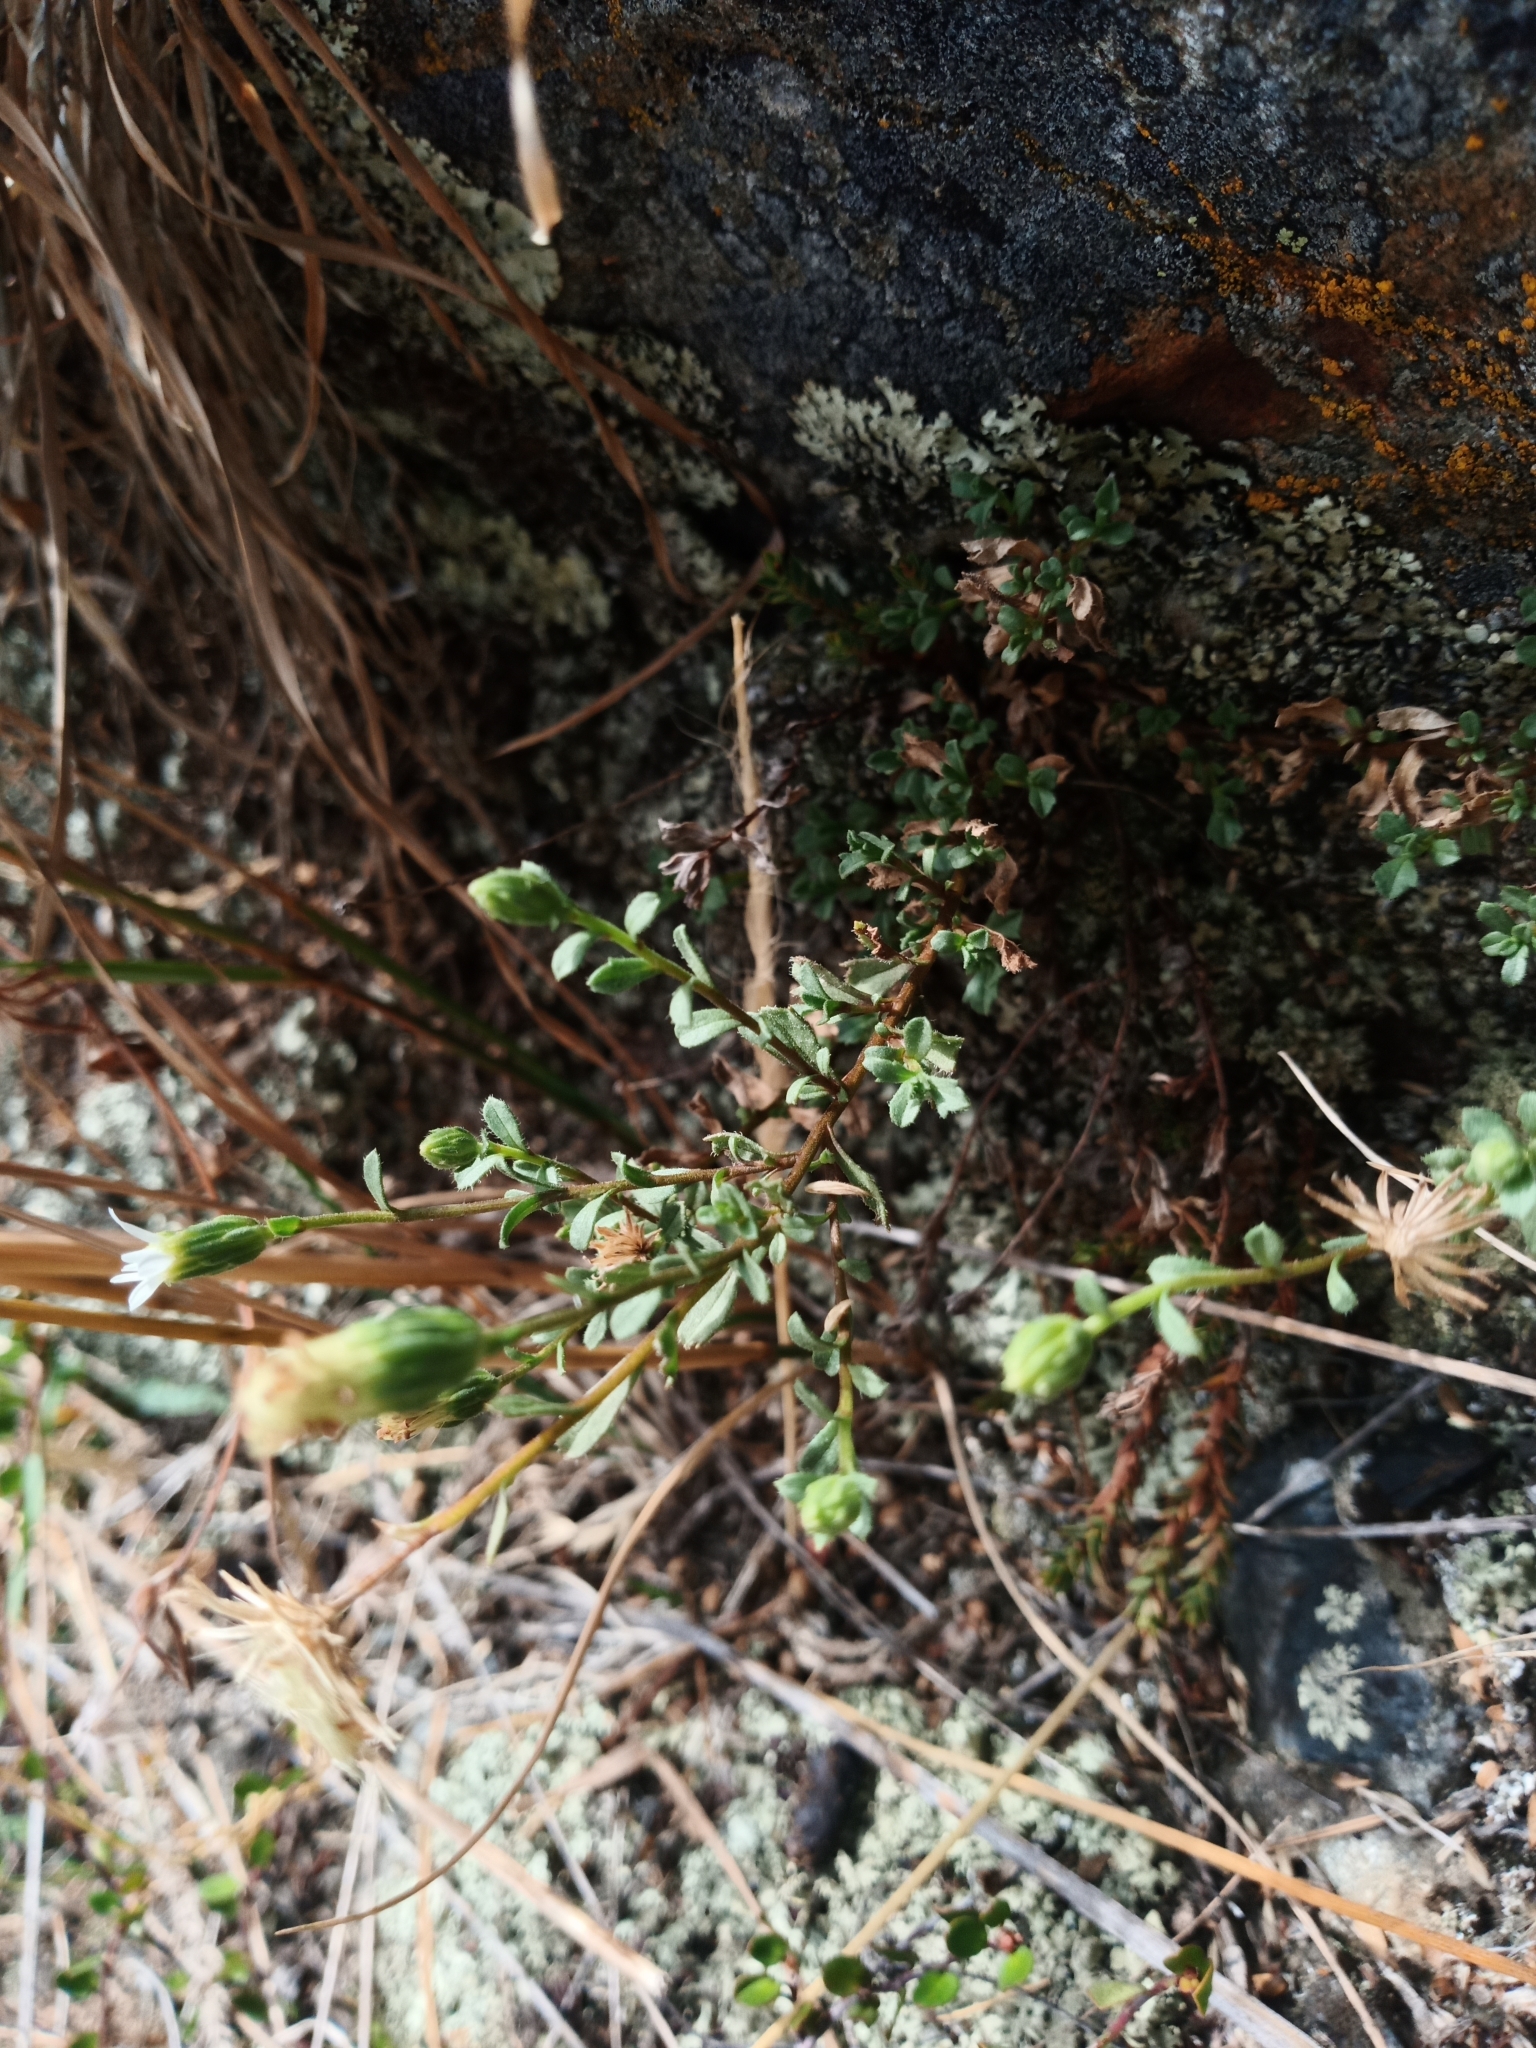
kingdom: Plantae
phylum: Tracheophyta
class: Magnoliopsida
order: Asterales
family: Asteraceae
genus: Vittadinia
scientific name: Vittadinia australis
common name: White fuzzweed
